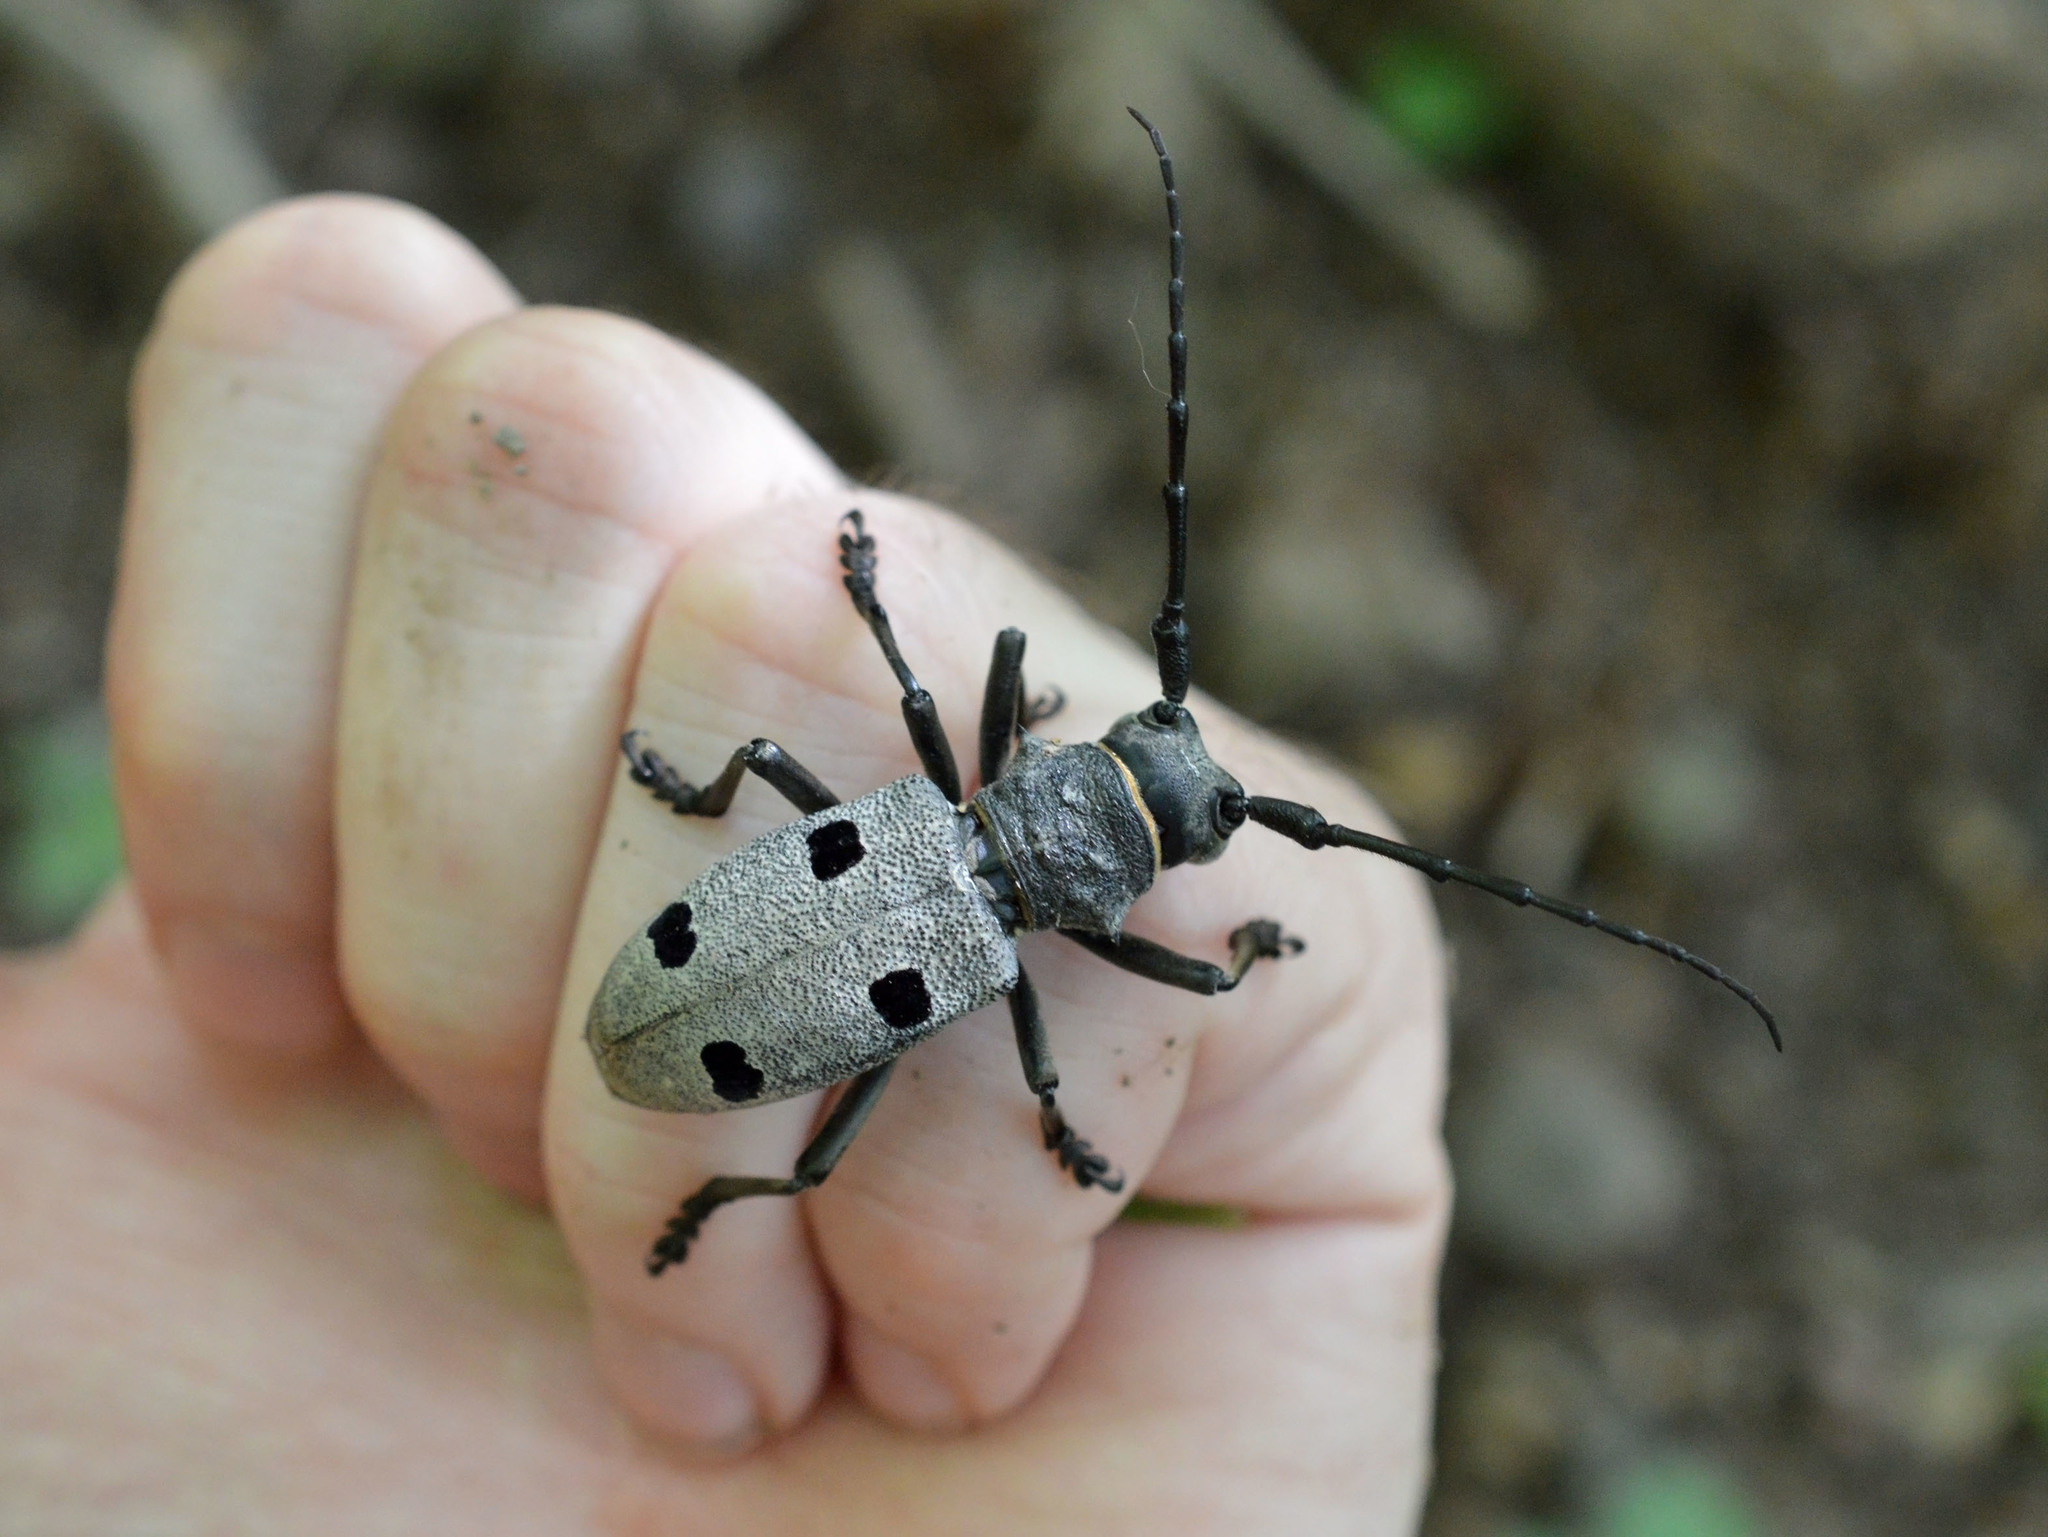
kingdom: Animalia
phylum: Arthropoda
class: Insecta
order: Coleoptera
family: Cerambycidae
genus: Morimus
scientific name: Morimus funereus
